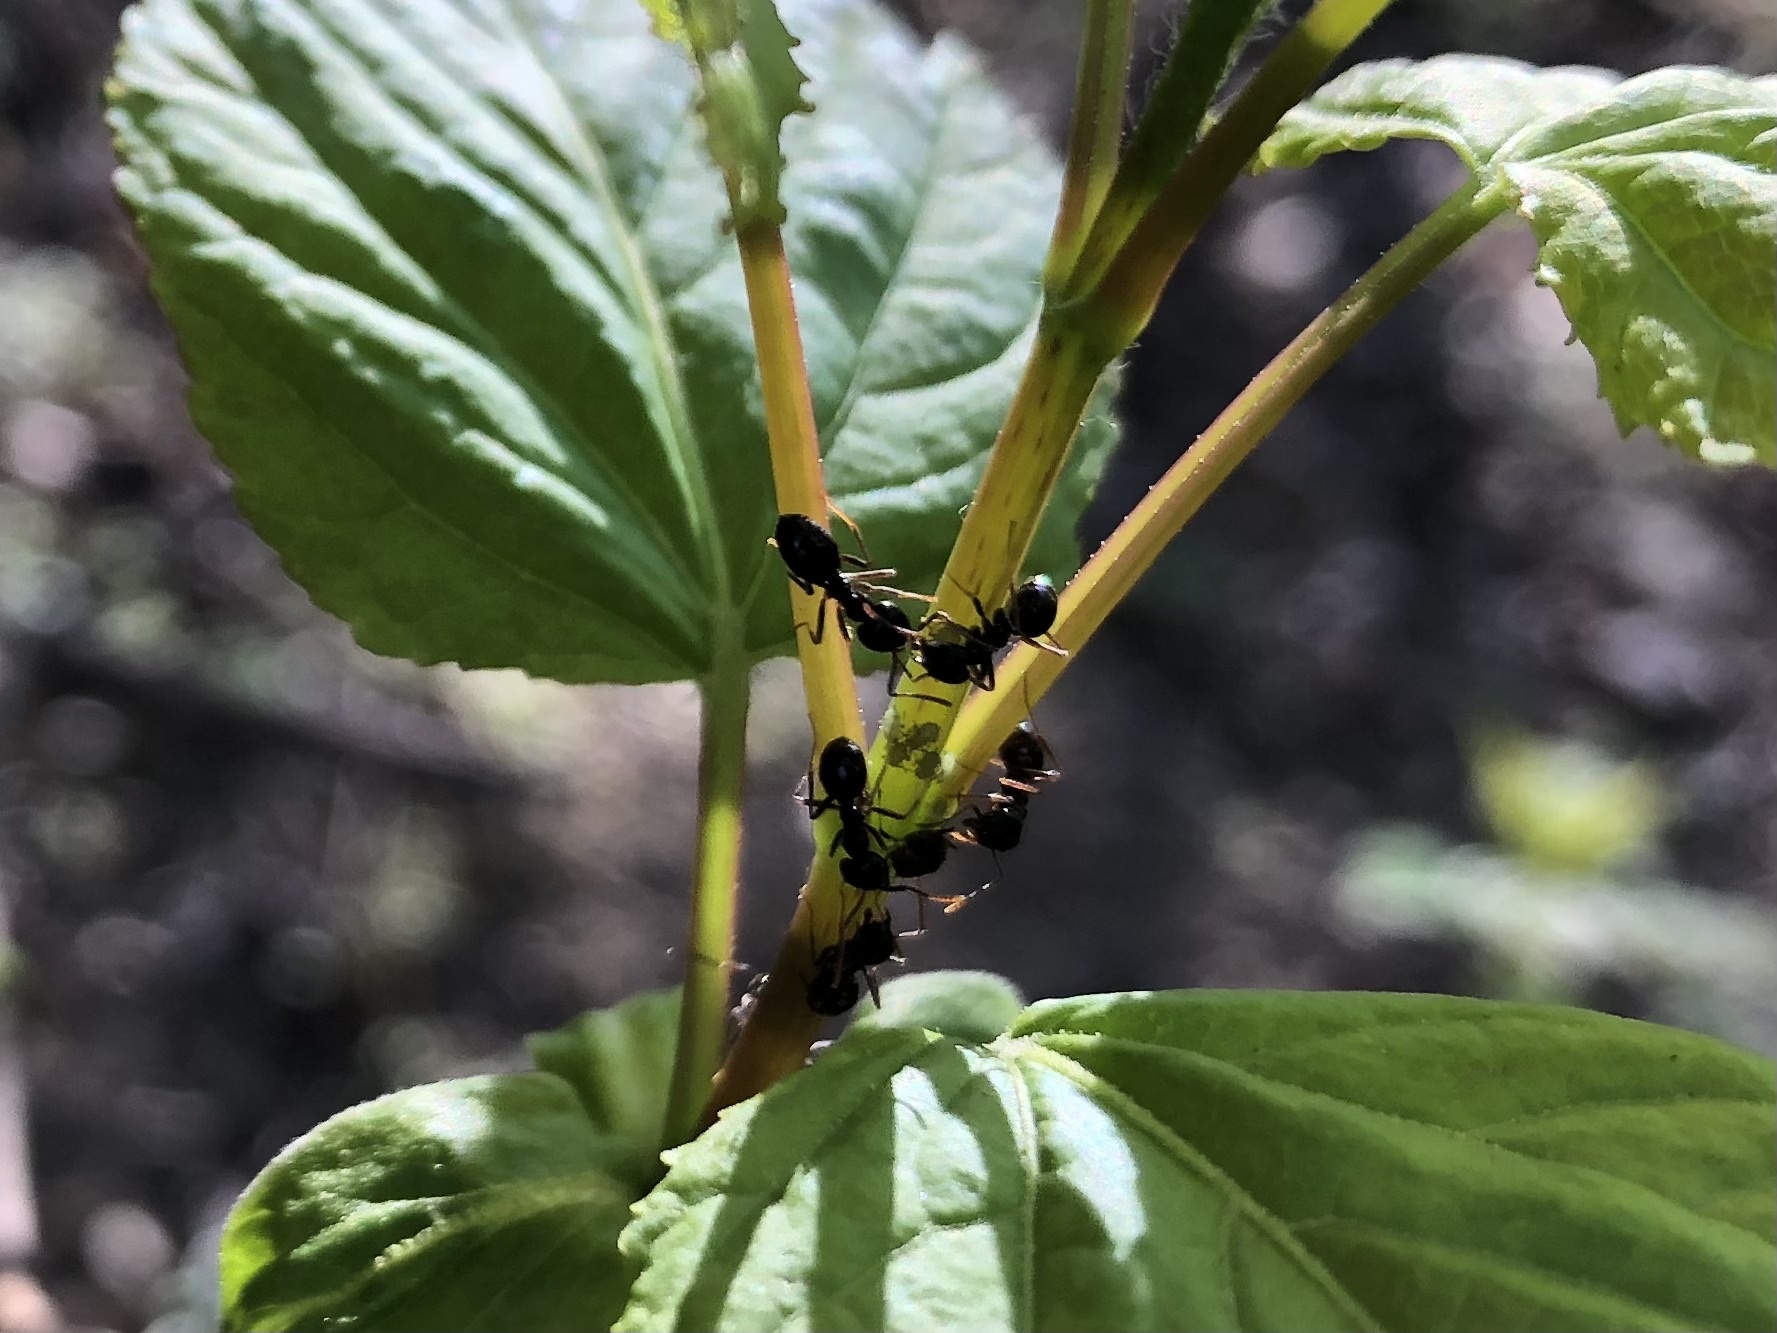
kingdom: Animalia
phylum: Arthropoda
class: Insecta
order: Hymenoptera
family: Formicidae
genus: Lasius
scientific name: Lasius fuliginosus
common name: Jet ant
